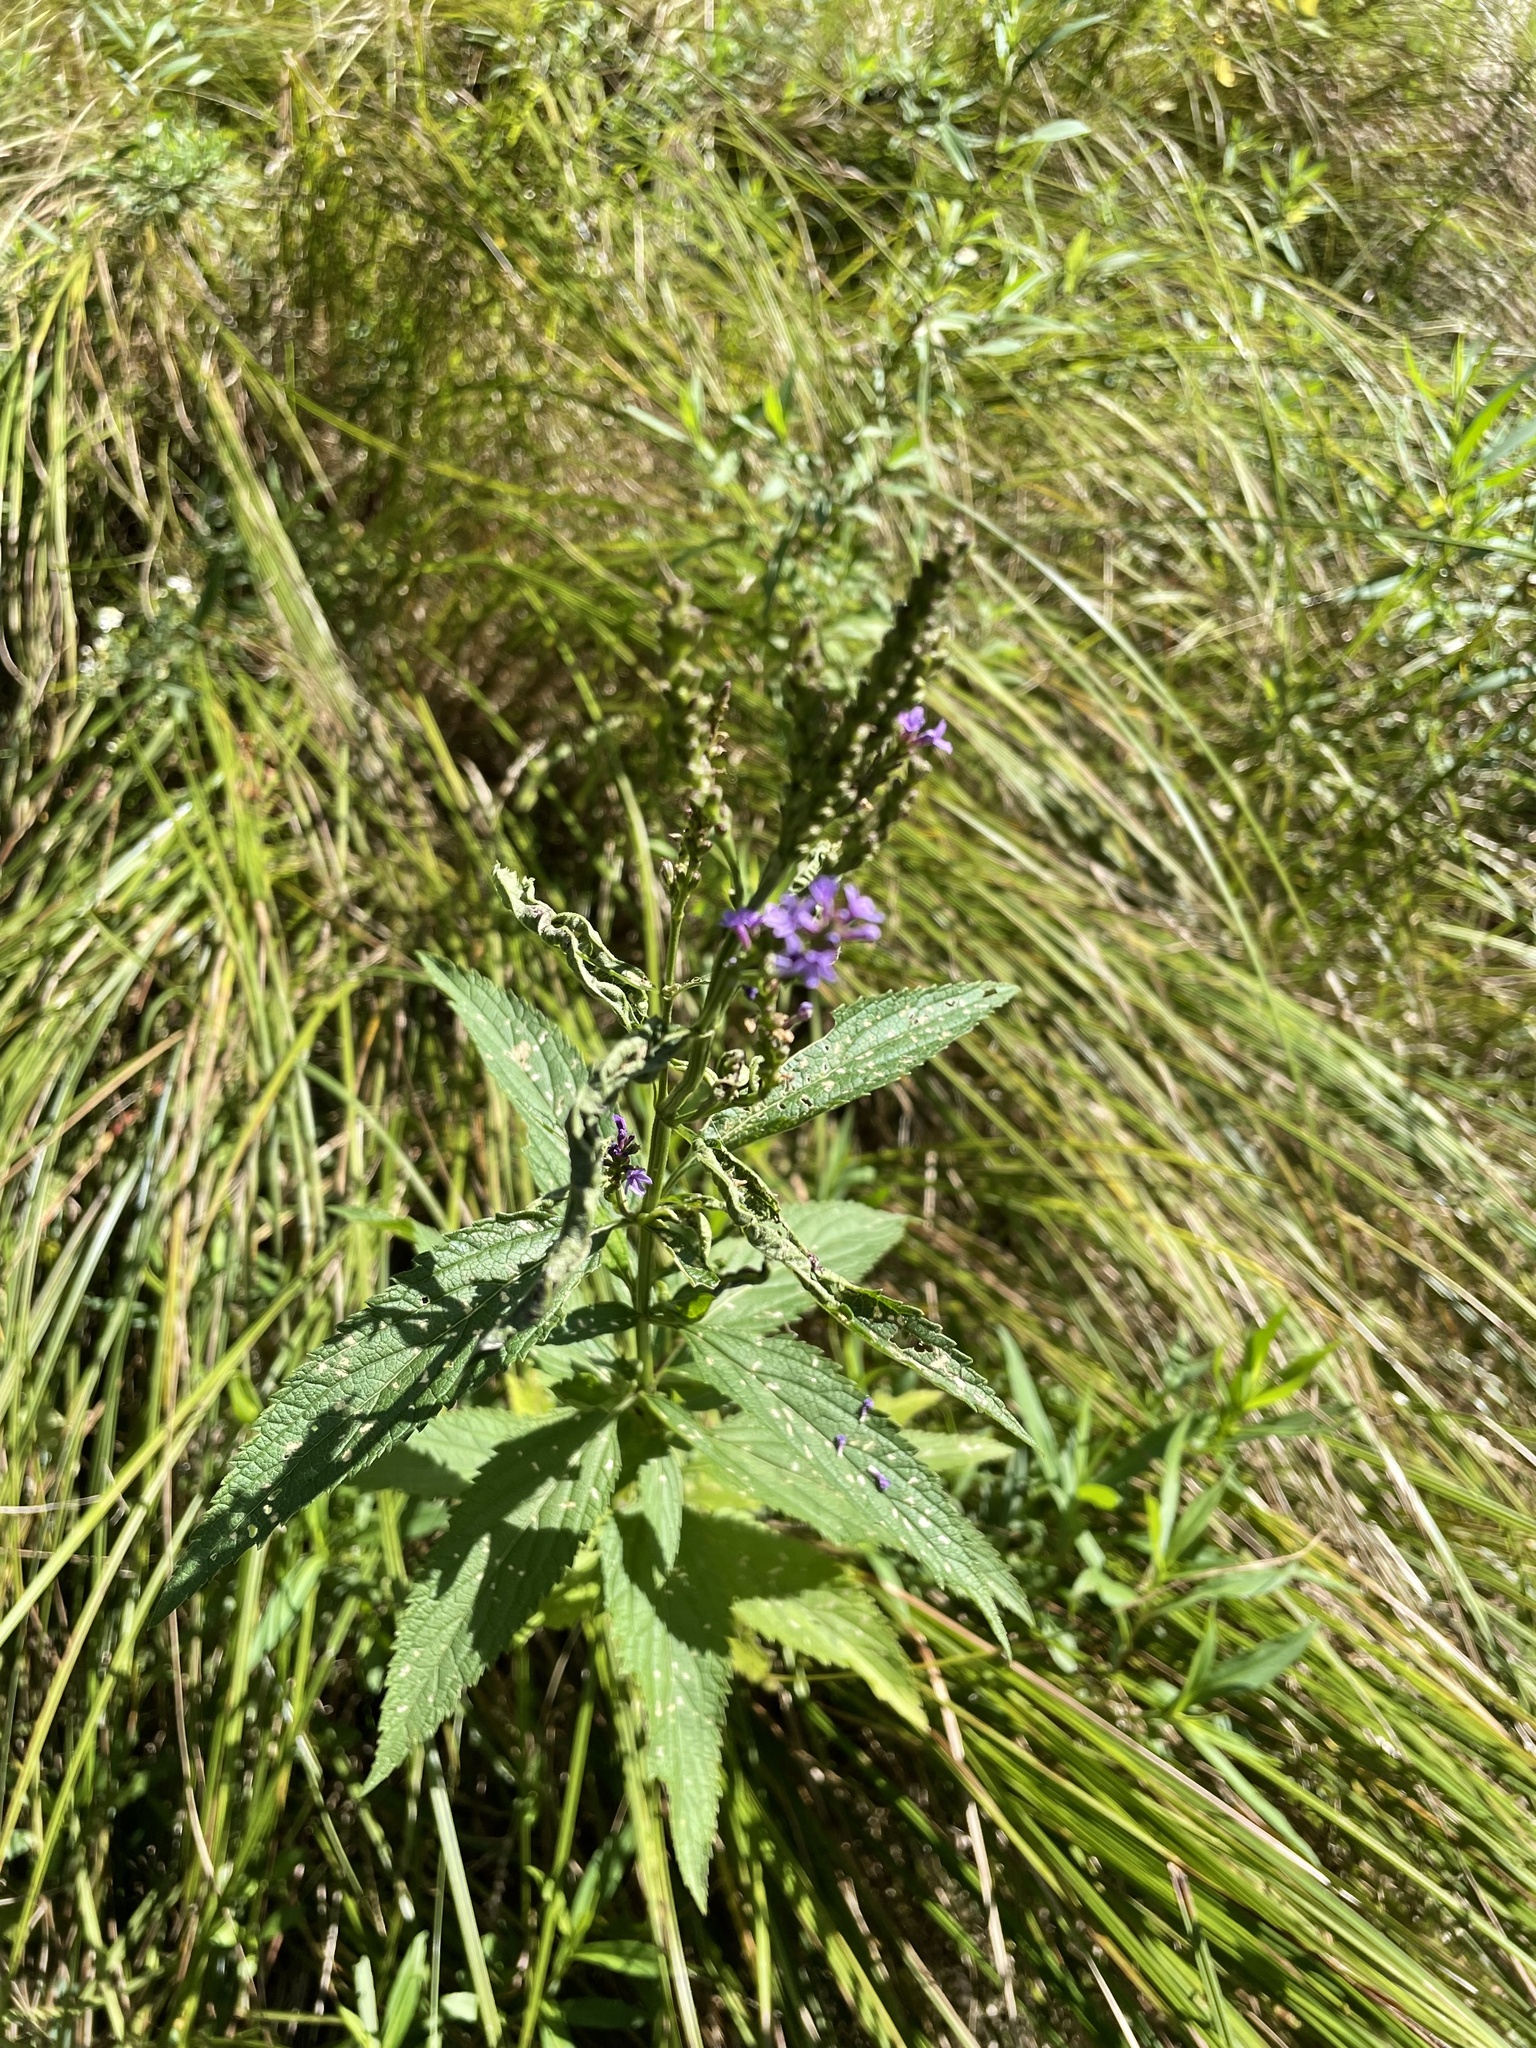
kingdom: Plantae
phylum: Tracheophyta
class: Magnoliopsida
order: Lamiales
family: Verbenaceae
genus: Verbena
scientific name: Verbena hastata
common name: American blue vervain
